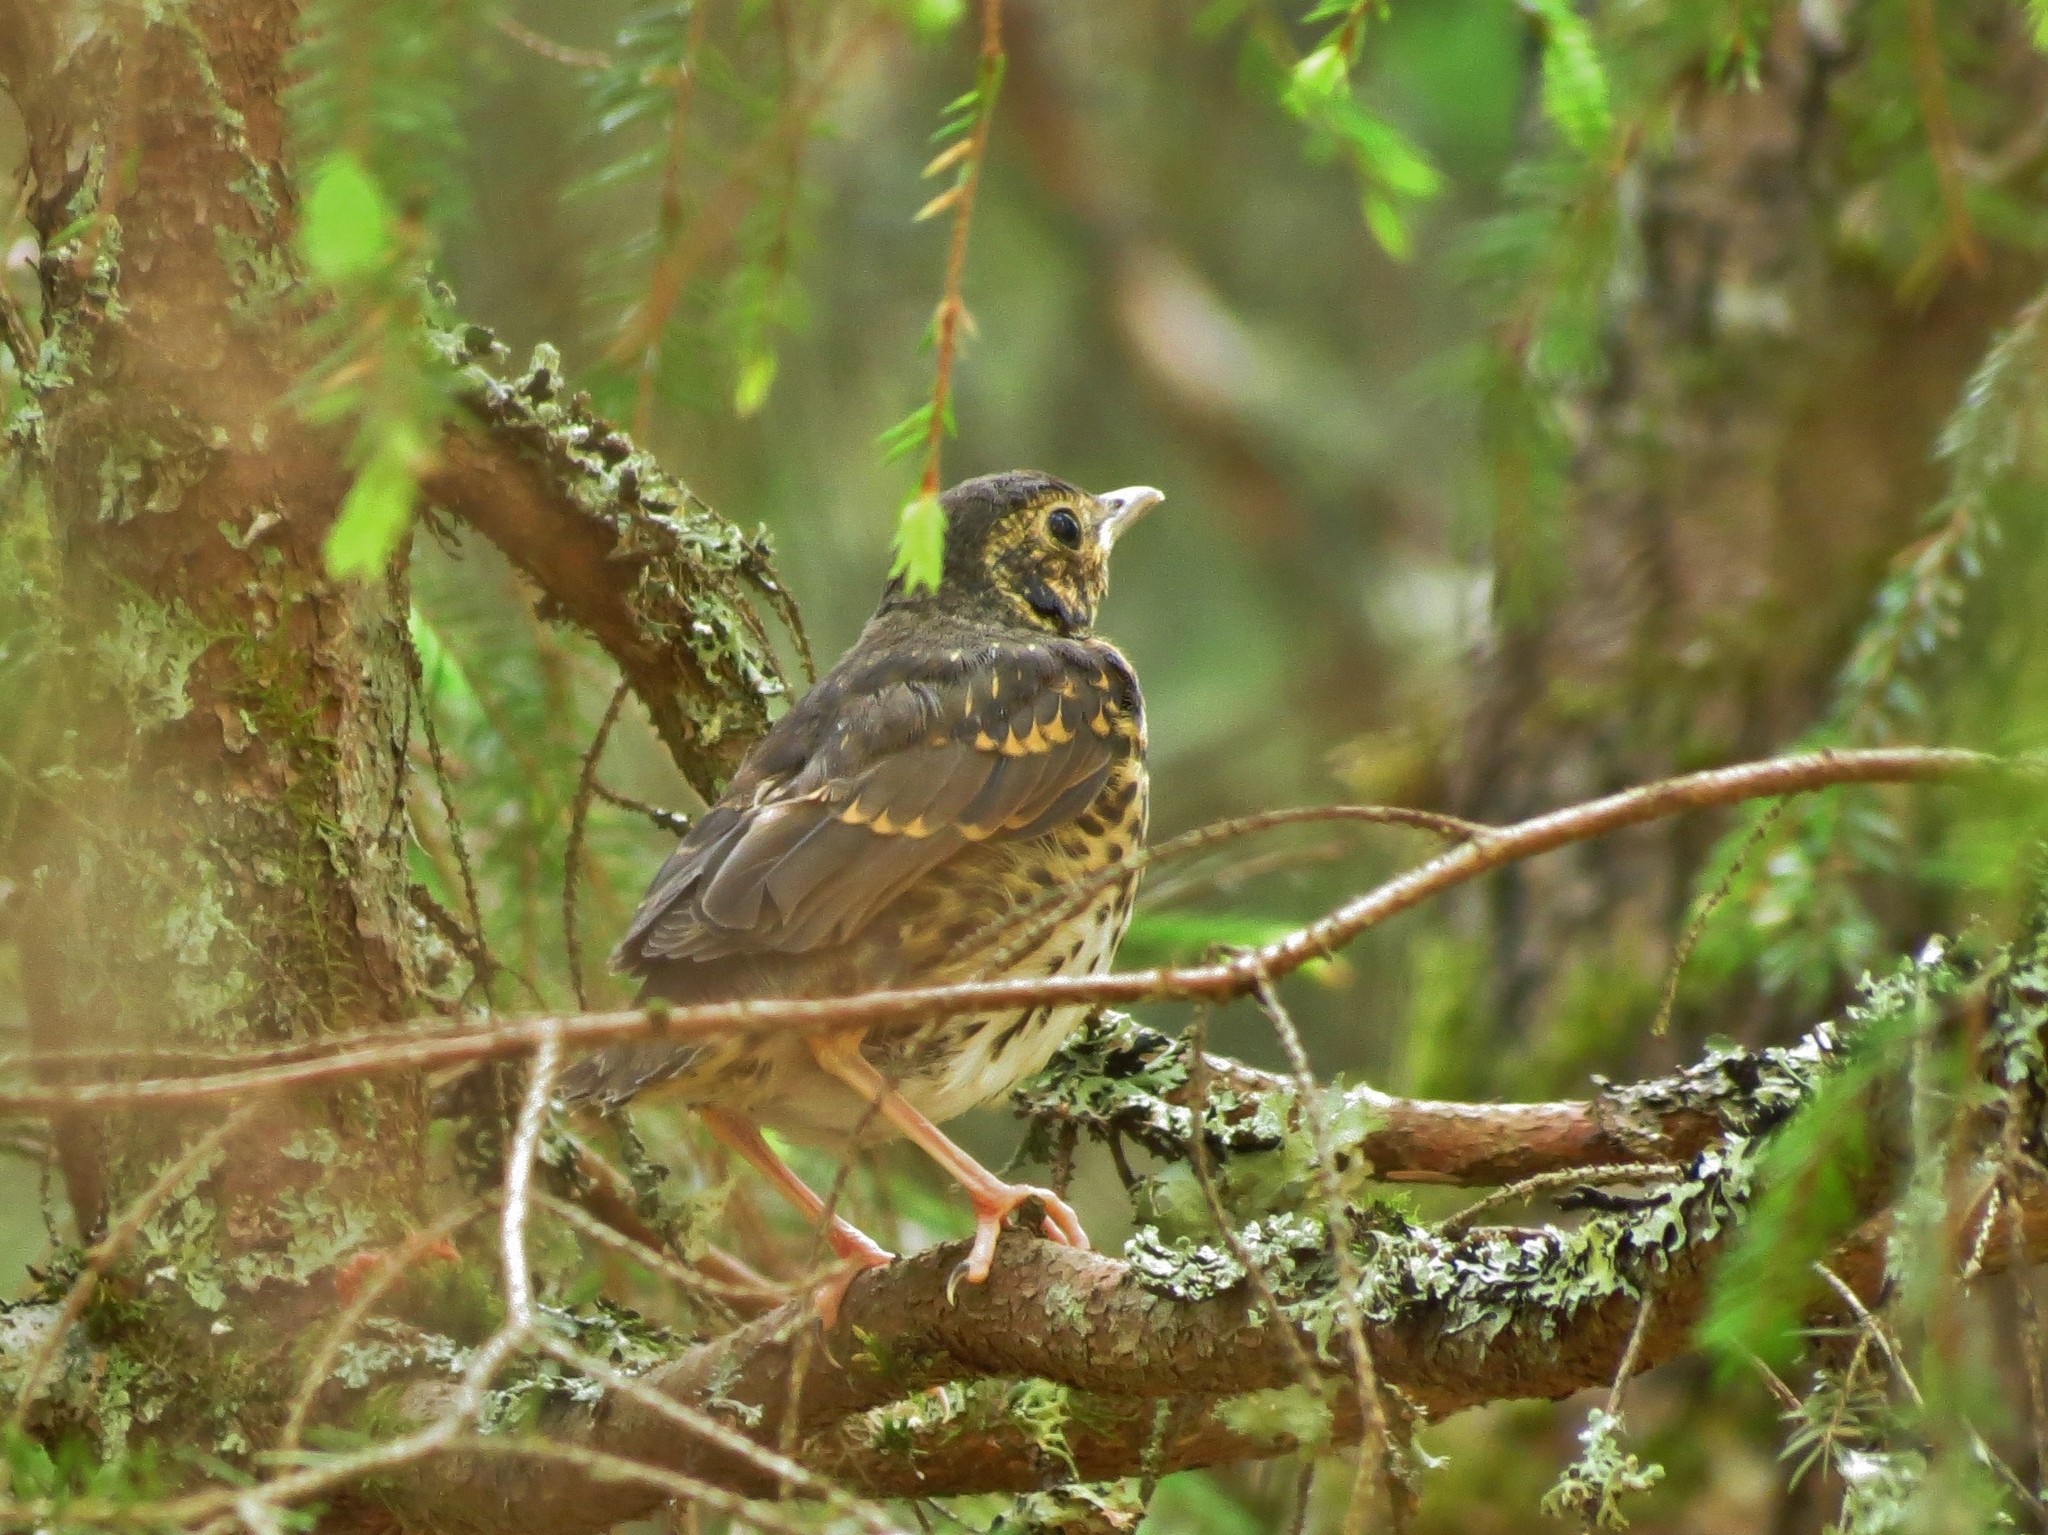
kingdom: Animalia
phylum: Chordata
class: Aves
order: Passeriformes
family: Turdidae
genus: Turdus
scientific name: Turdus philomelos
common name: Song thrush
